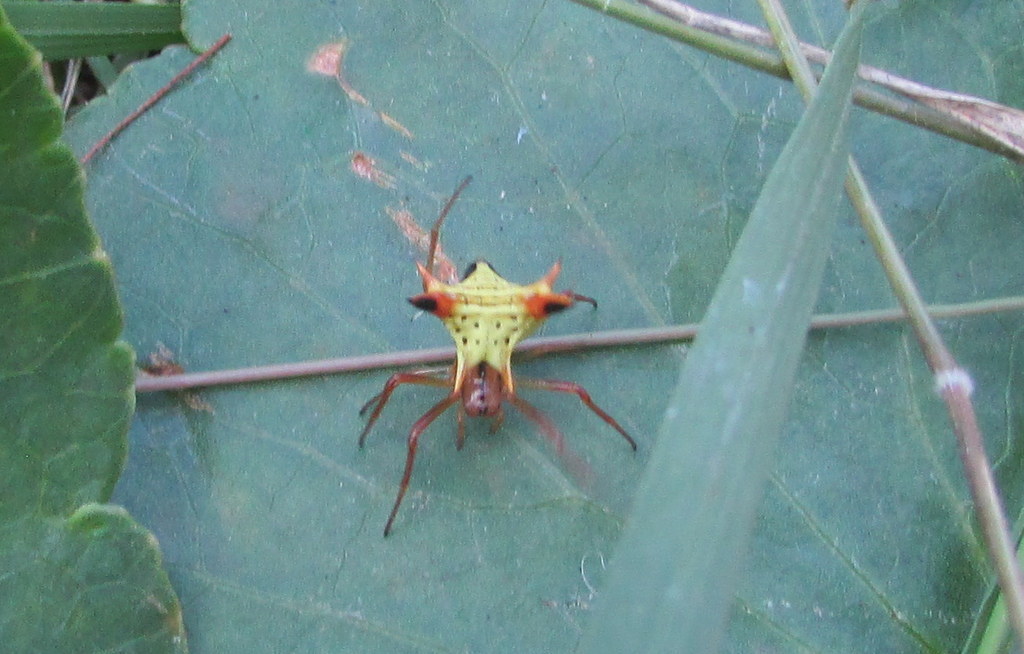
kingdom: Animalia
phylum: Arthropoda
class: Arachnida
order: Araneae
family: Araneidae
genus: Micrathena
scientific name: Micrathena furcata
